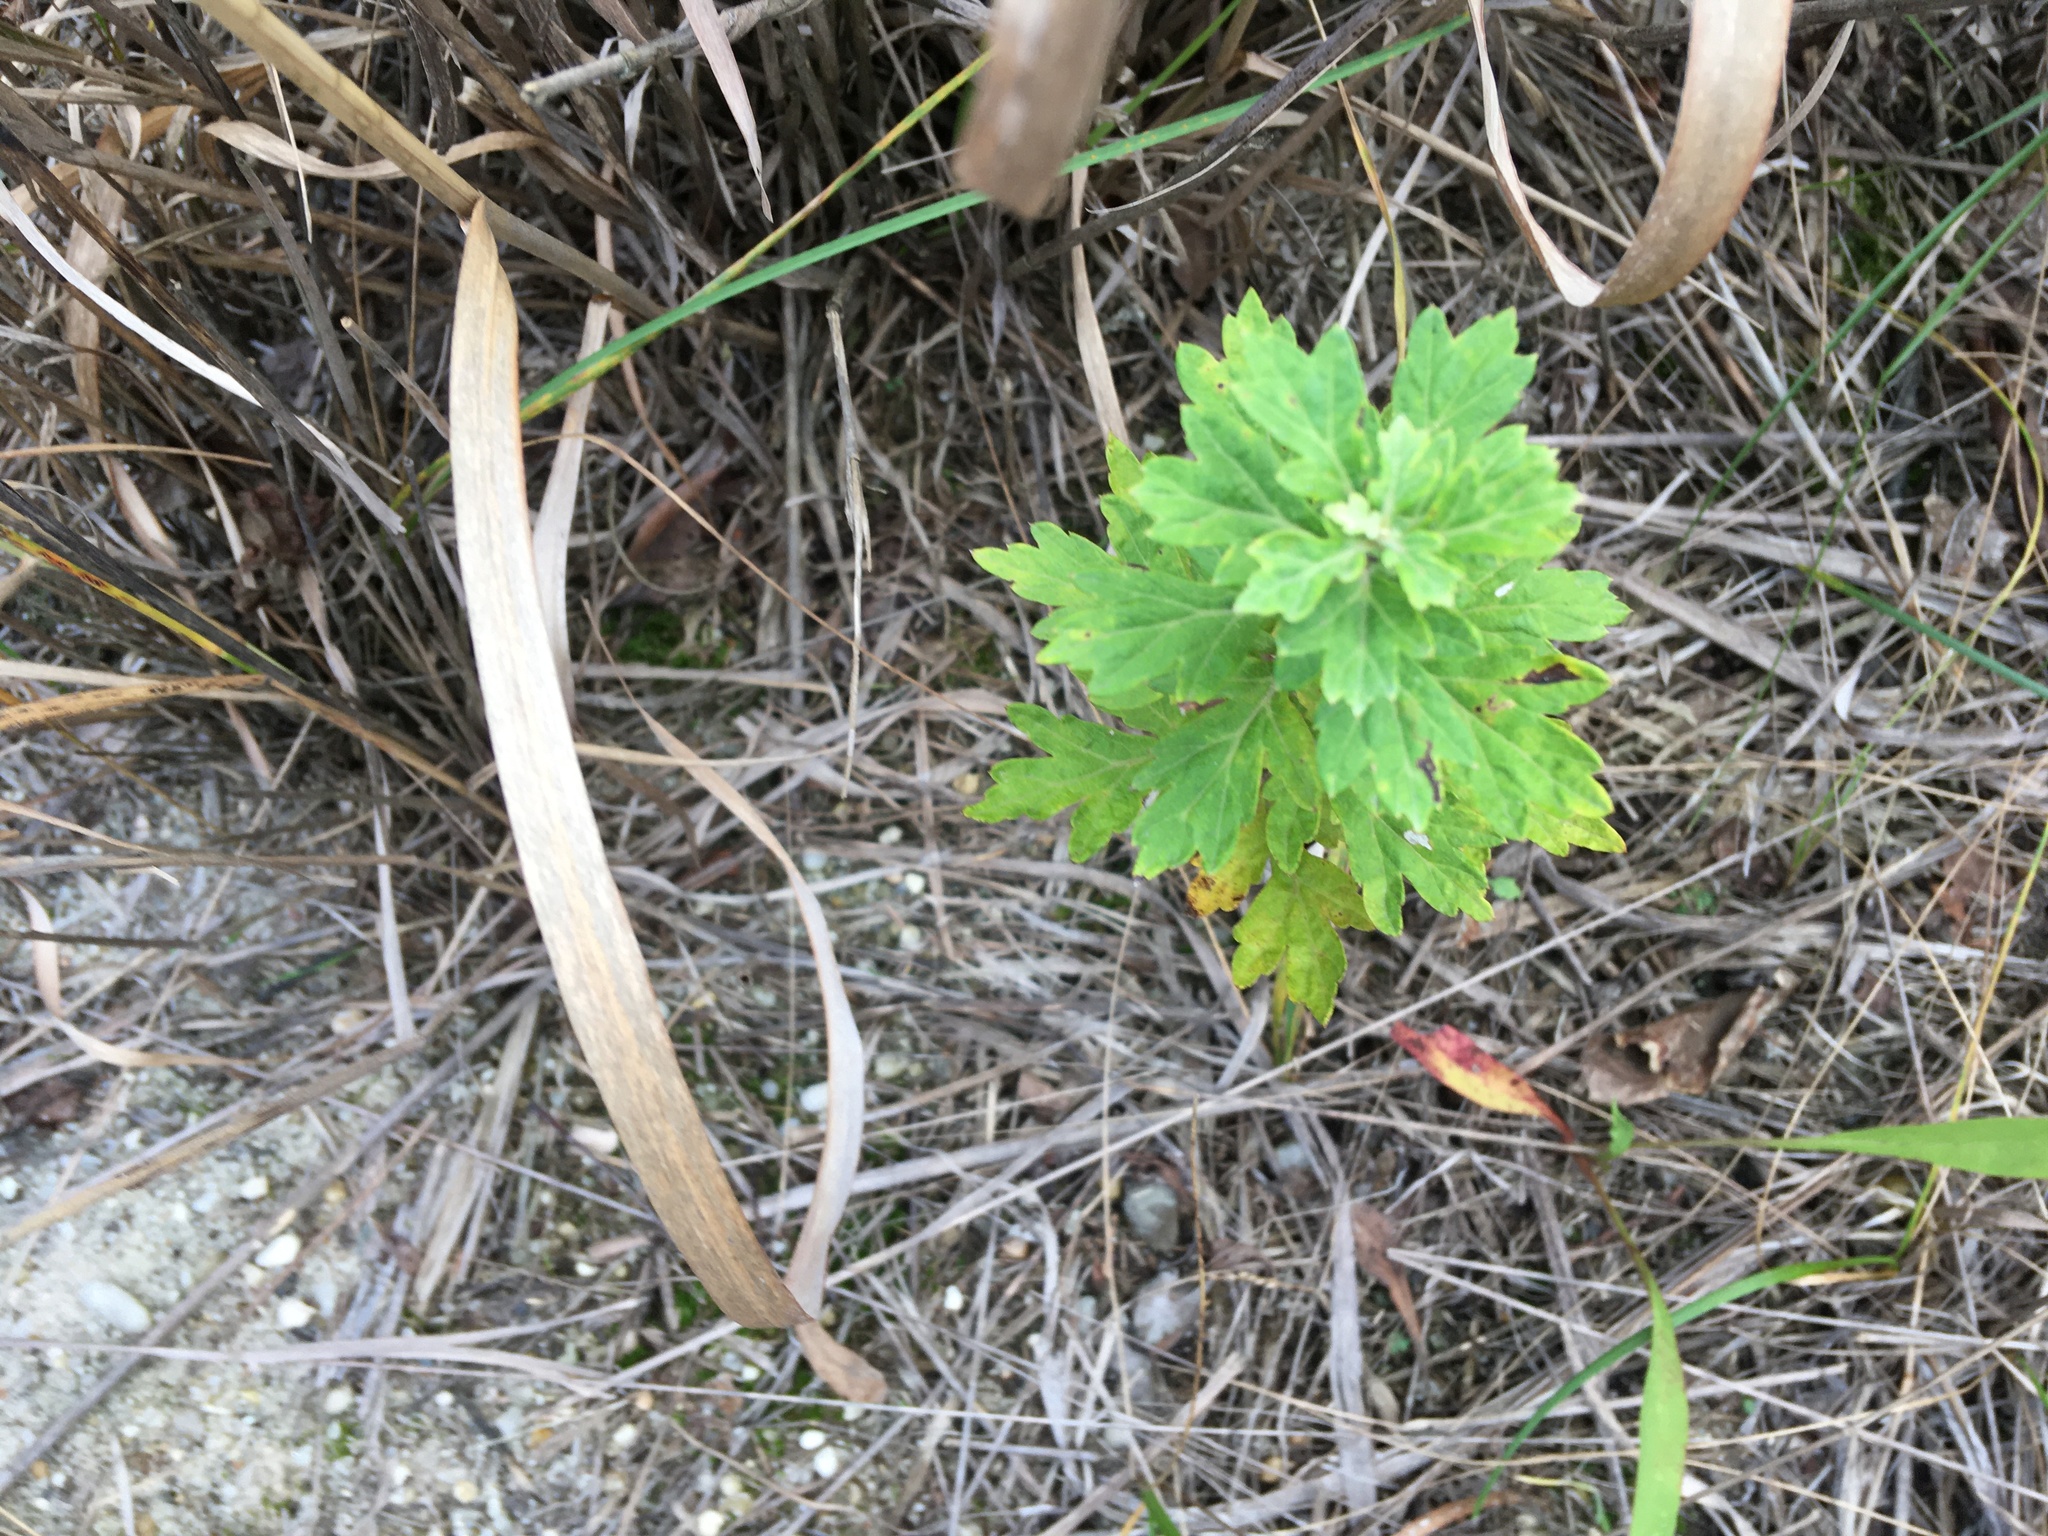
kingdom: Plantae
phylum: Tracheophyta
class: Magnoliopsida
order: Asterales
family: Asteraceae
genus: Artemisia
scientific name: Artemisia vulgaris
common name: Mugwort
